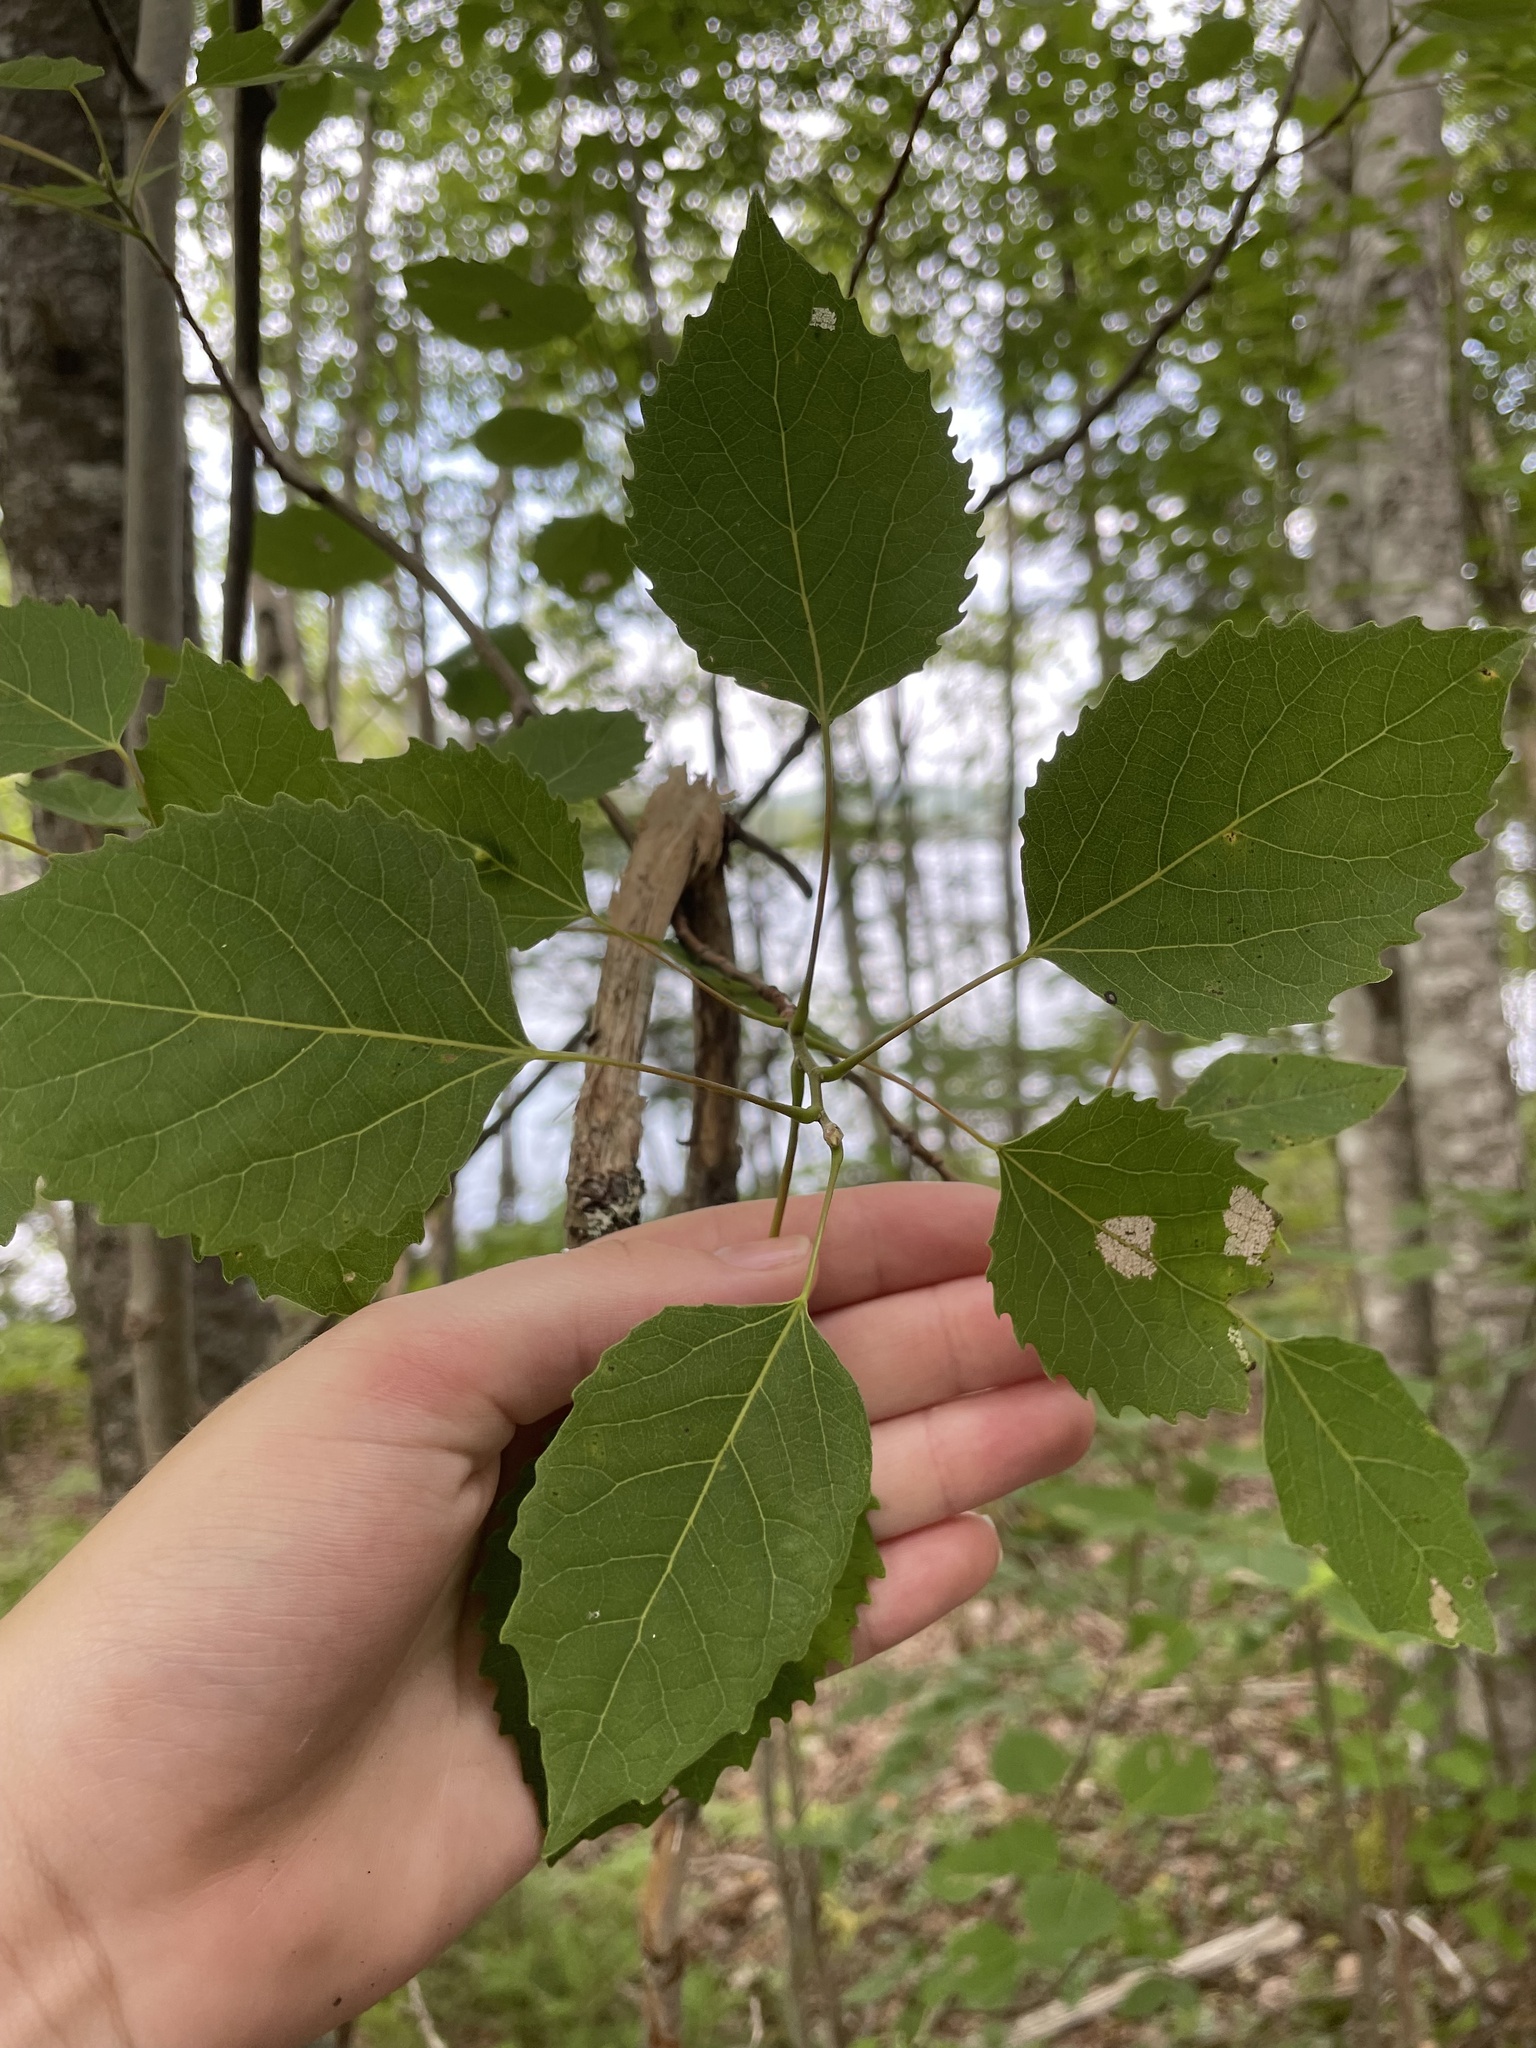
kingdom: Plantae
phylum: Tracheophyta
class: Magnoliopsida
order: Malpighiales
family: Salicaceae
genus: Populus
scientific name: Populus grandidentata
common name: Bigtooth aspen
